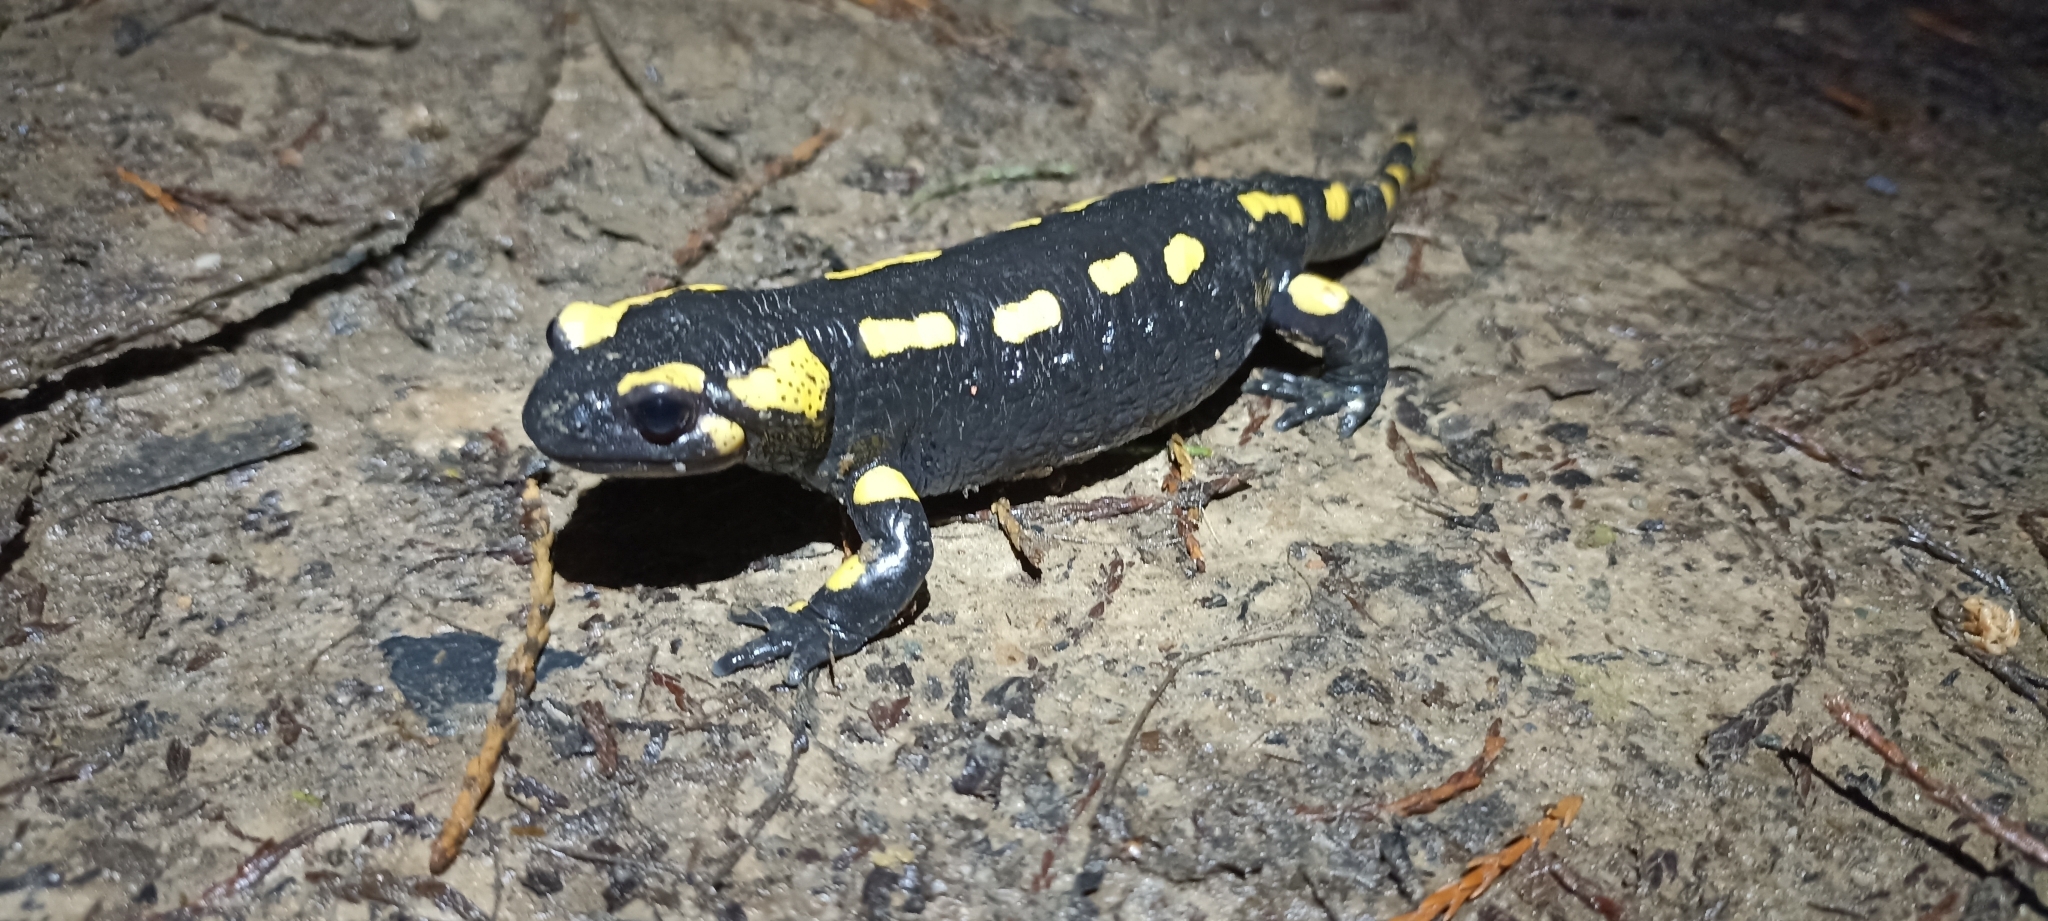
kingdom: Animalia
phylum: Chordata
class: Amphibia
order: Caudata
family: Salamandridae
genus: Salamandra
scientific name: Salamandra salamandra
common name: Fire salamander
